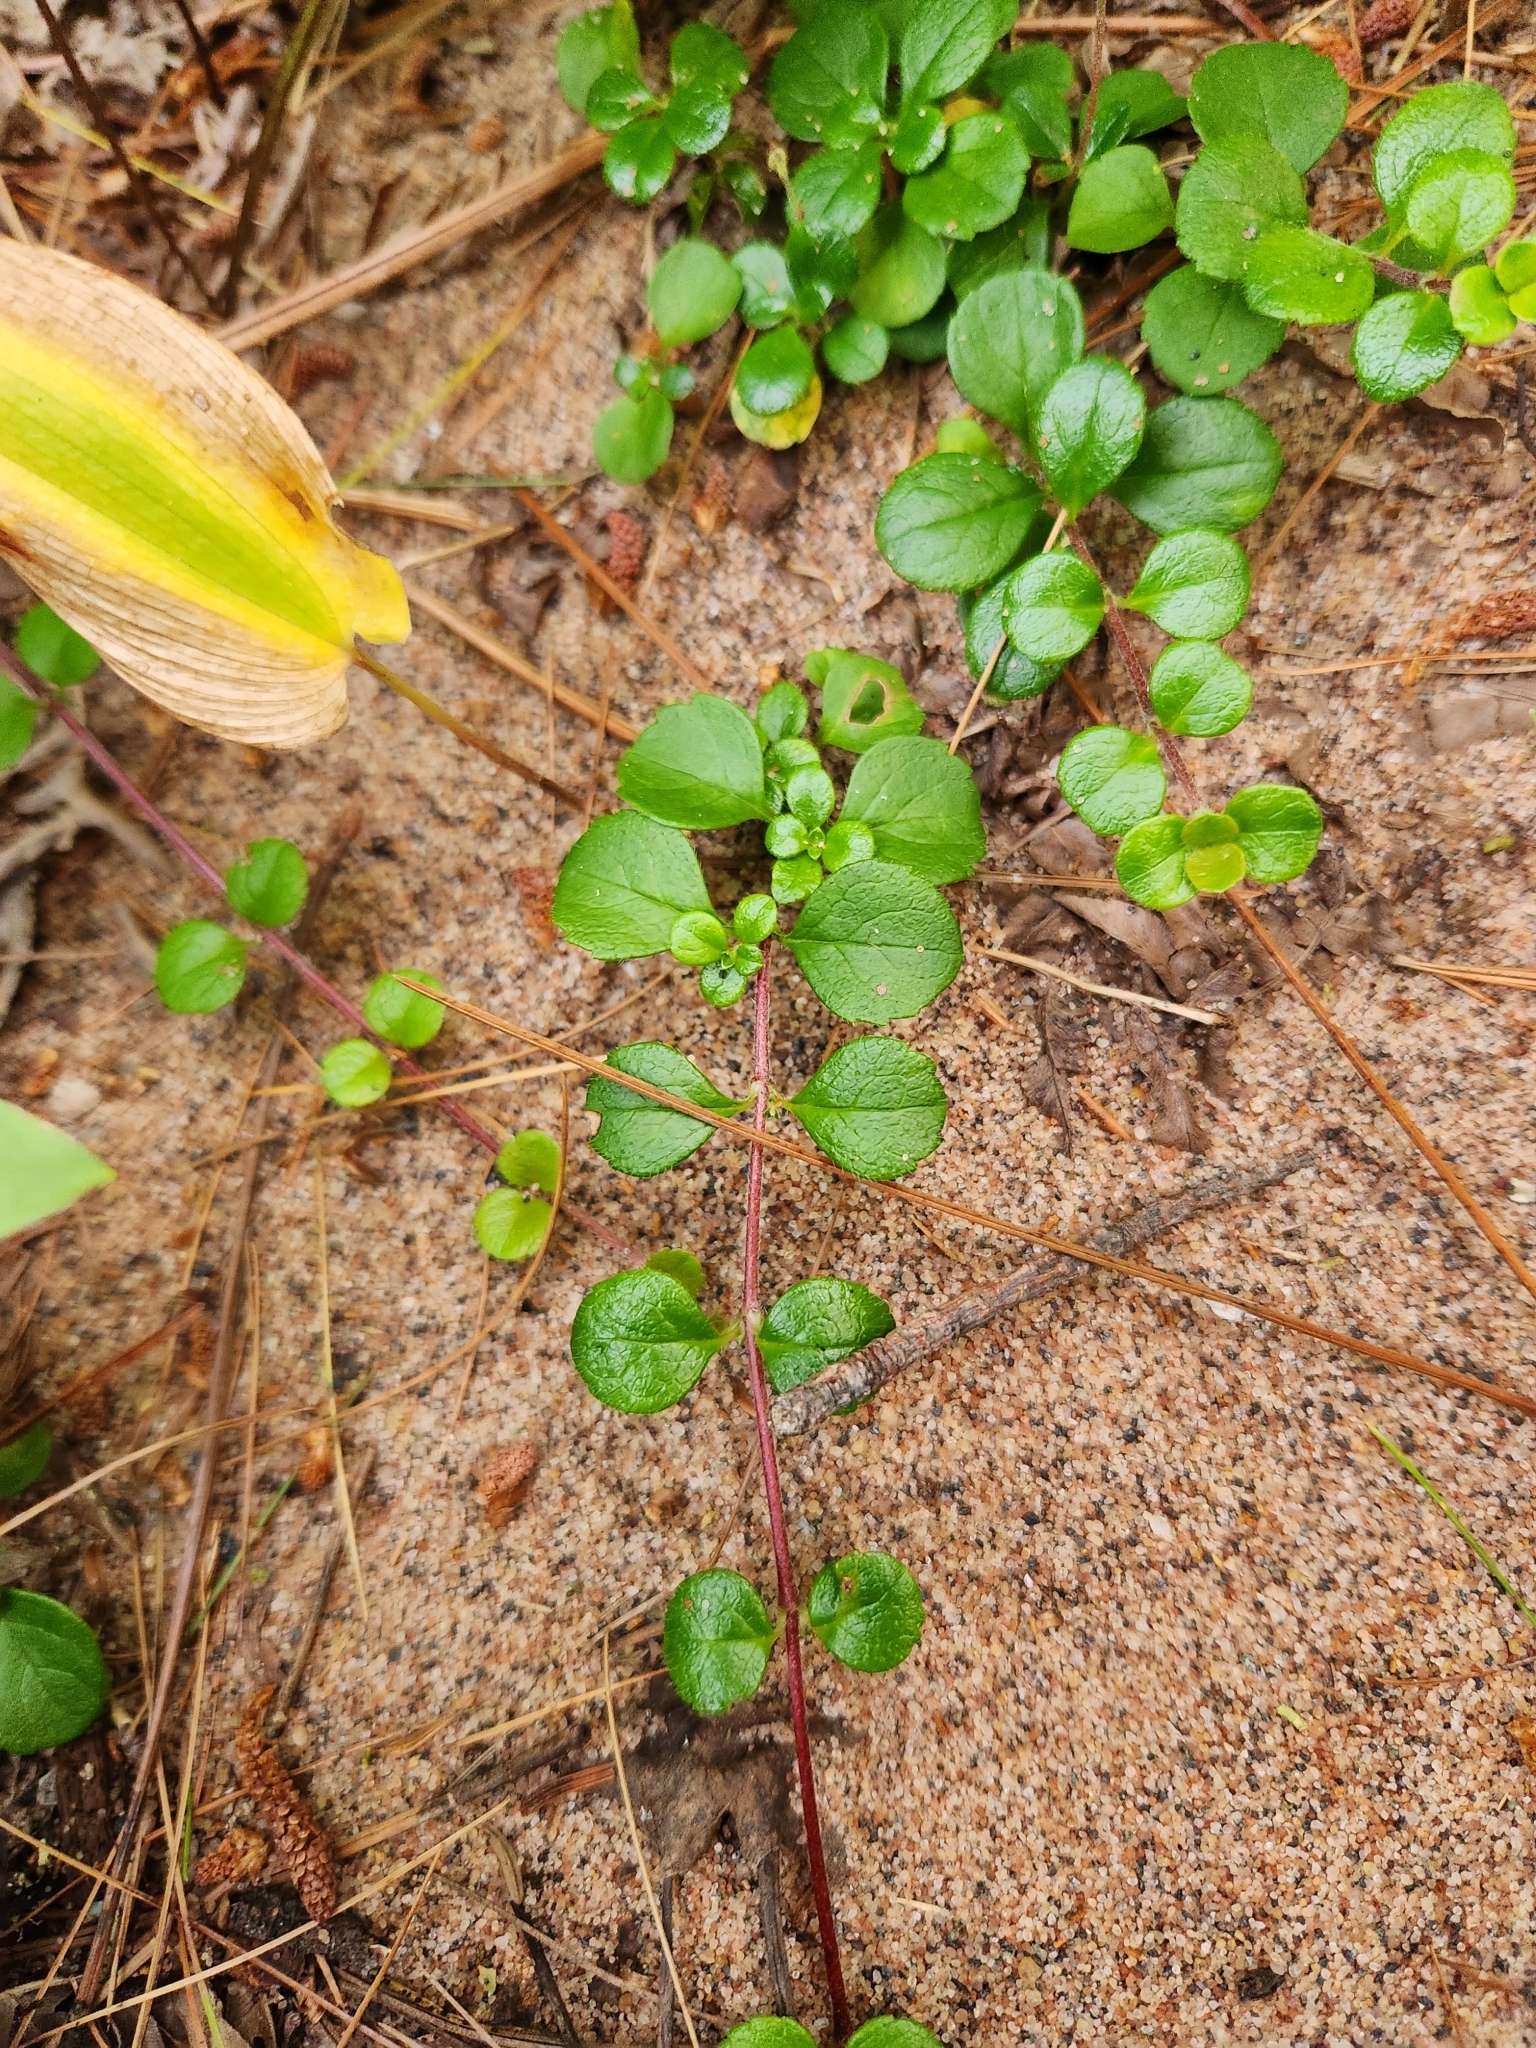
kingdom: Plantae
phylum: Tracheophyta
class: Magnoliopsida
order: Dipsacales
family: Caprifoliaceae
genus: Linnaea
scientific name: Linnaea borealis
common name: Twinflower
